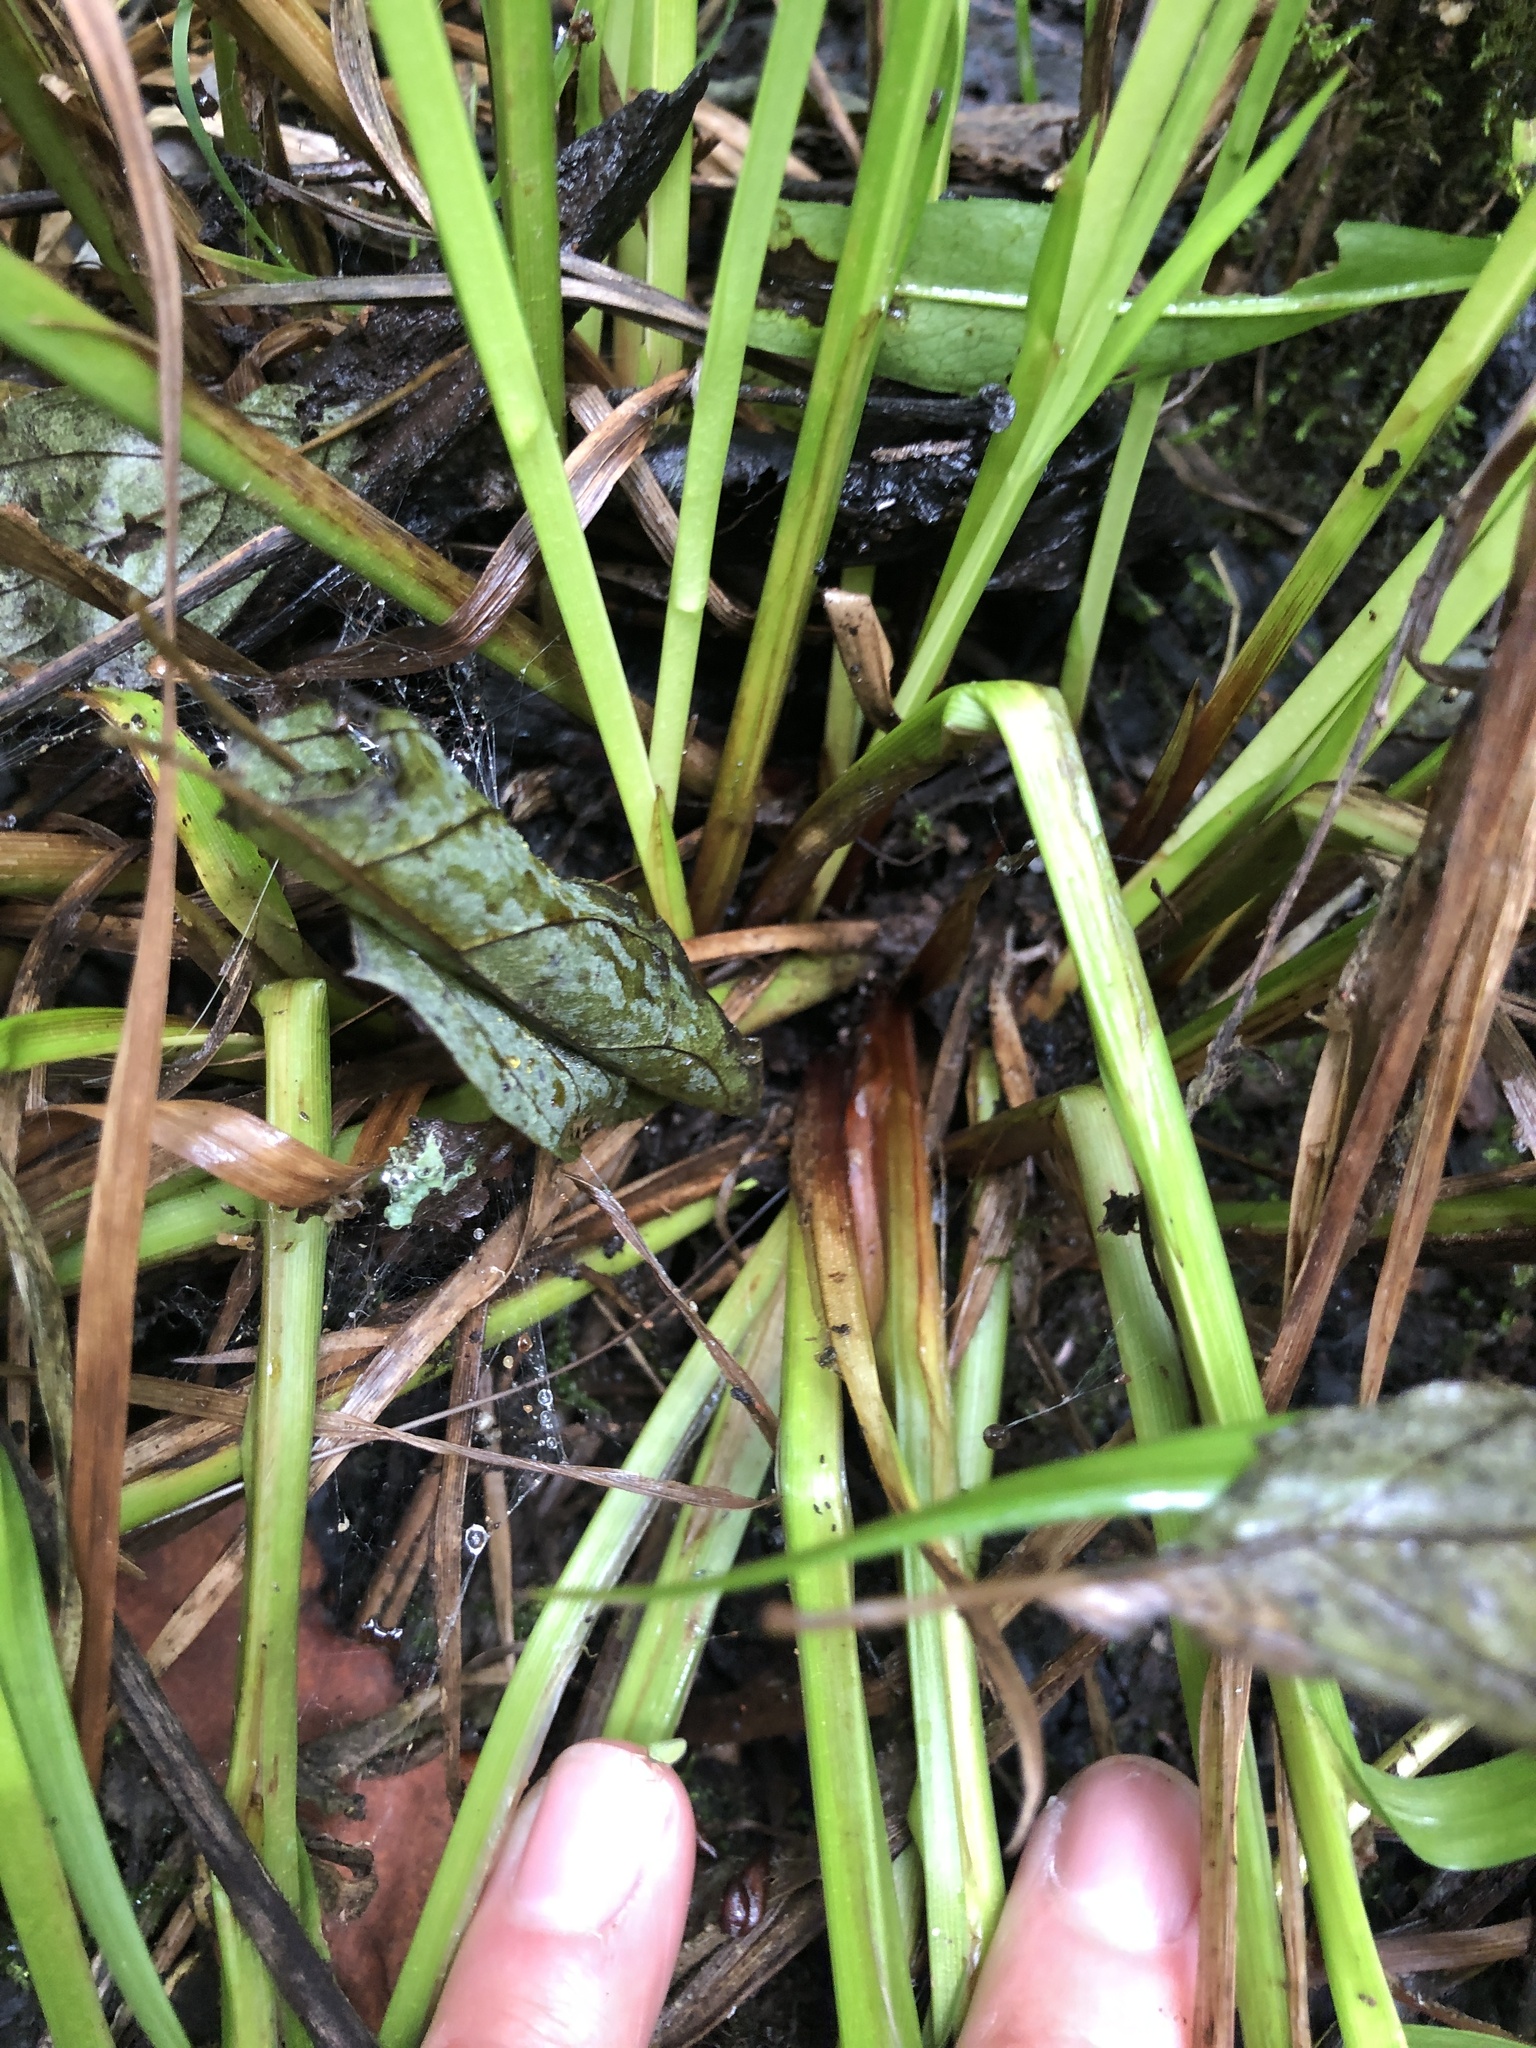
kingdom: Plantae
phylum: Tracheophyta
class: Liliopsida
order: Poales
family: Cyperaceae
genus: Carex
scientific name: Carex retrorsa
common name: Knot-sheath sedge
